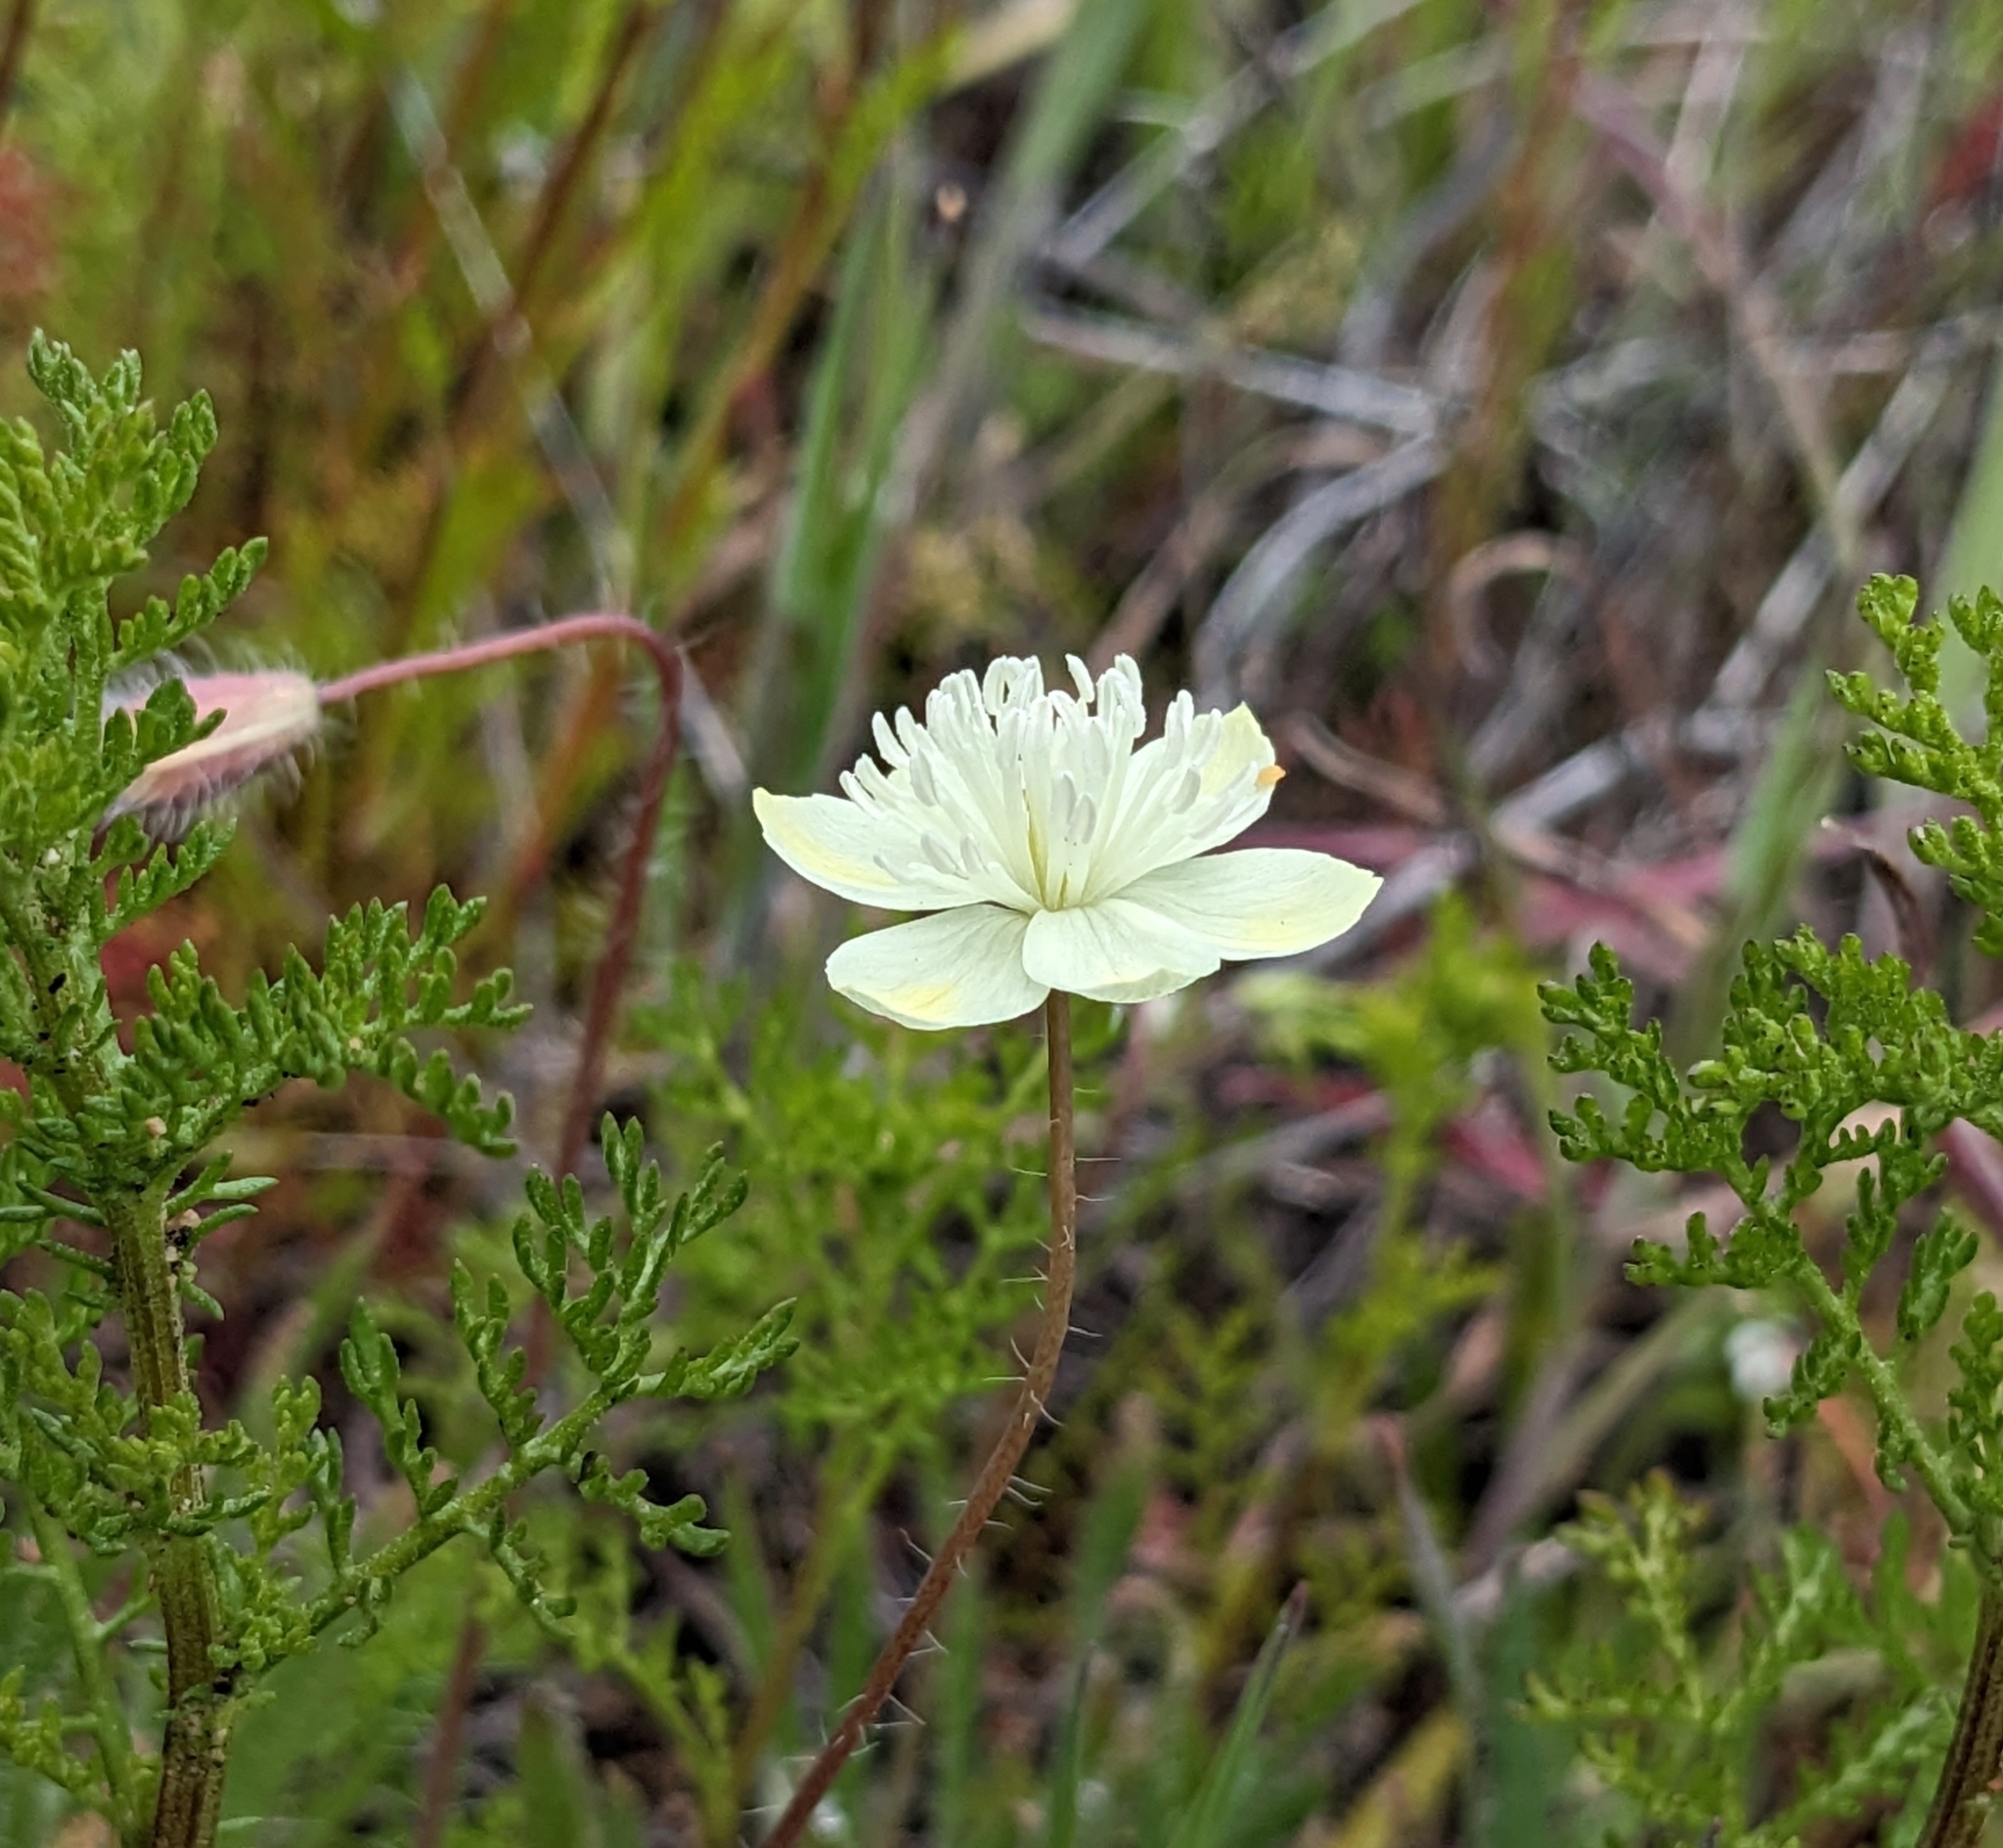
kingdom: Plantae
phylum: Tracheophyta
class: Magnoliopsida
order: Ranunculales
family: Papaveraceae
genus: Platystemon
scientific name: Platystemon californicus
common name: Cream-cups
